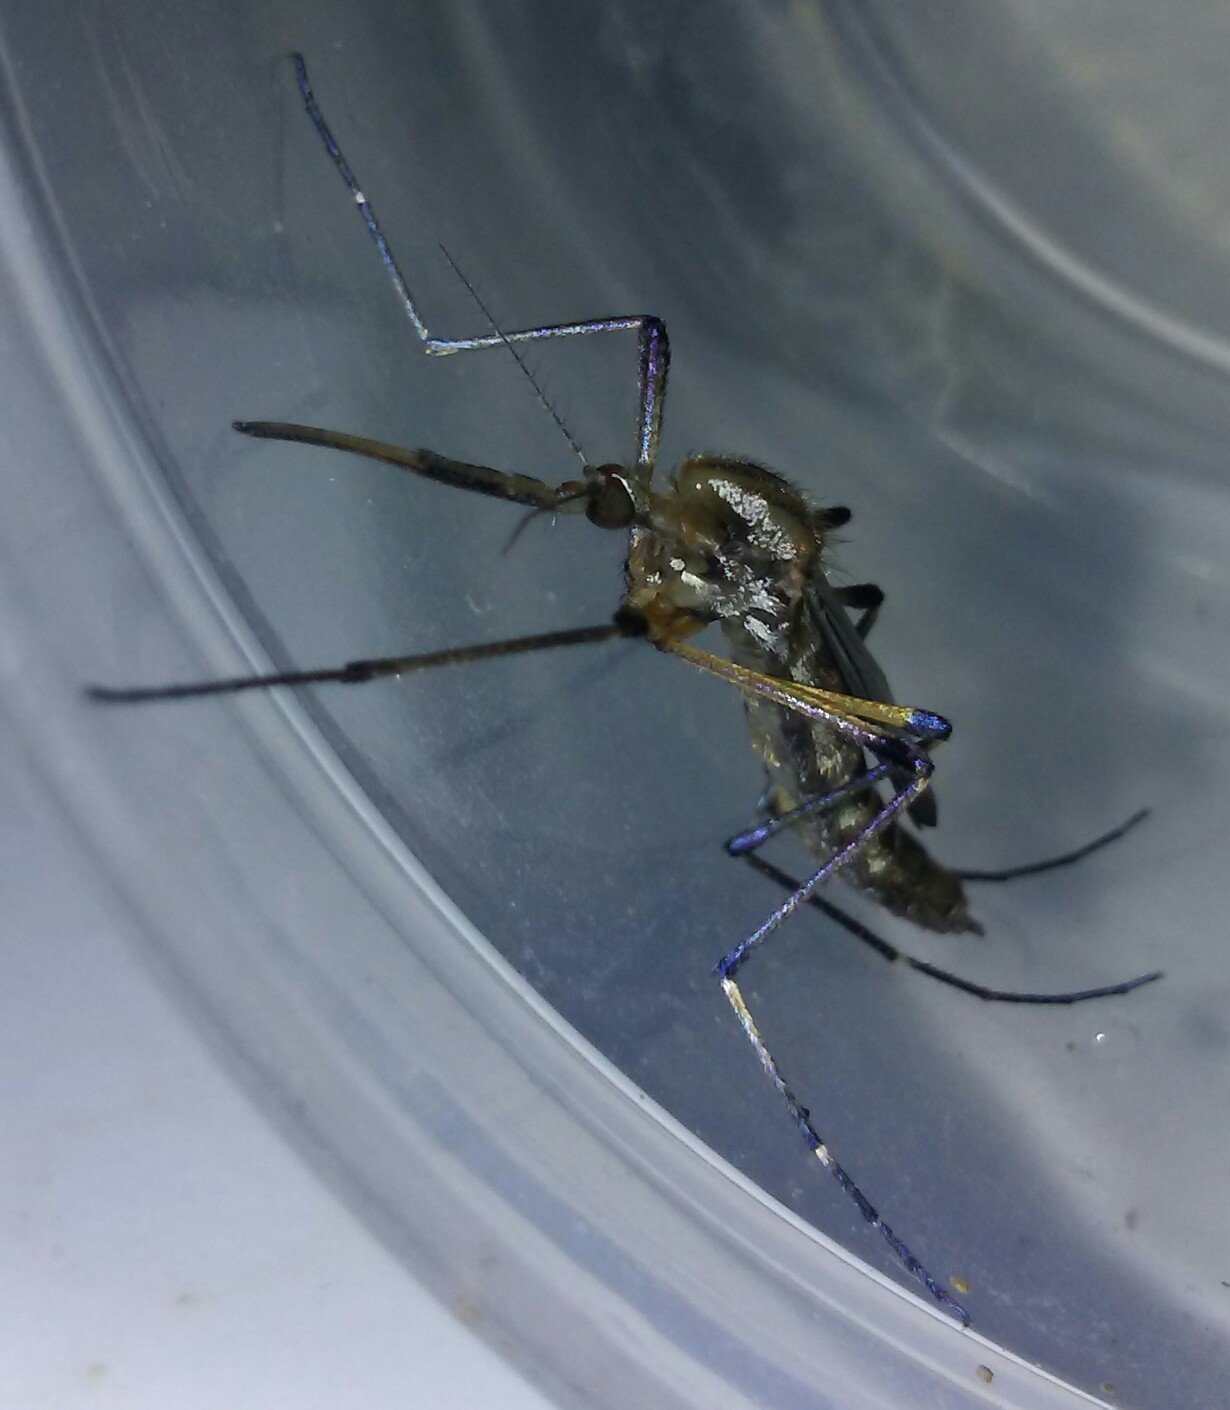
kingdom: Animalia
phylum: Arthropoda
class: Insecta
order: Diptera
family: Culicidae
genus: Psorophora
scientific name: Psorophora howardii
